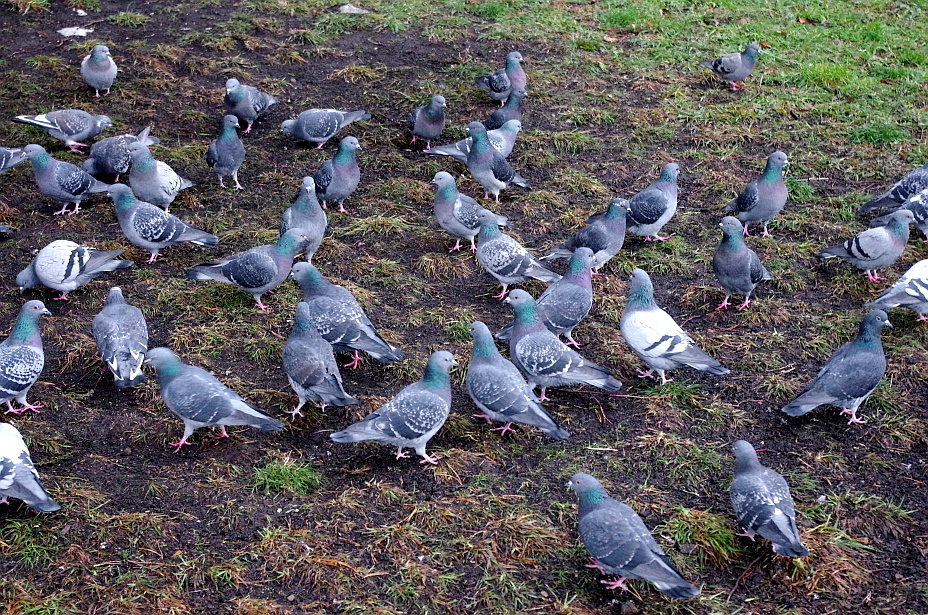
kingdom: Animalia
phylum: Chordata
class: Aves
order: Columbiformes
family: Columbidae
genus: Columba
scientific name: Columba livia
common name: Rock pigeon
